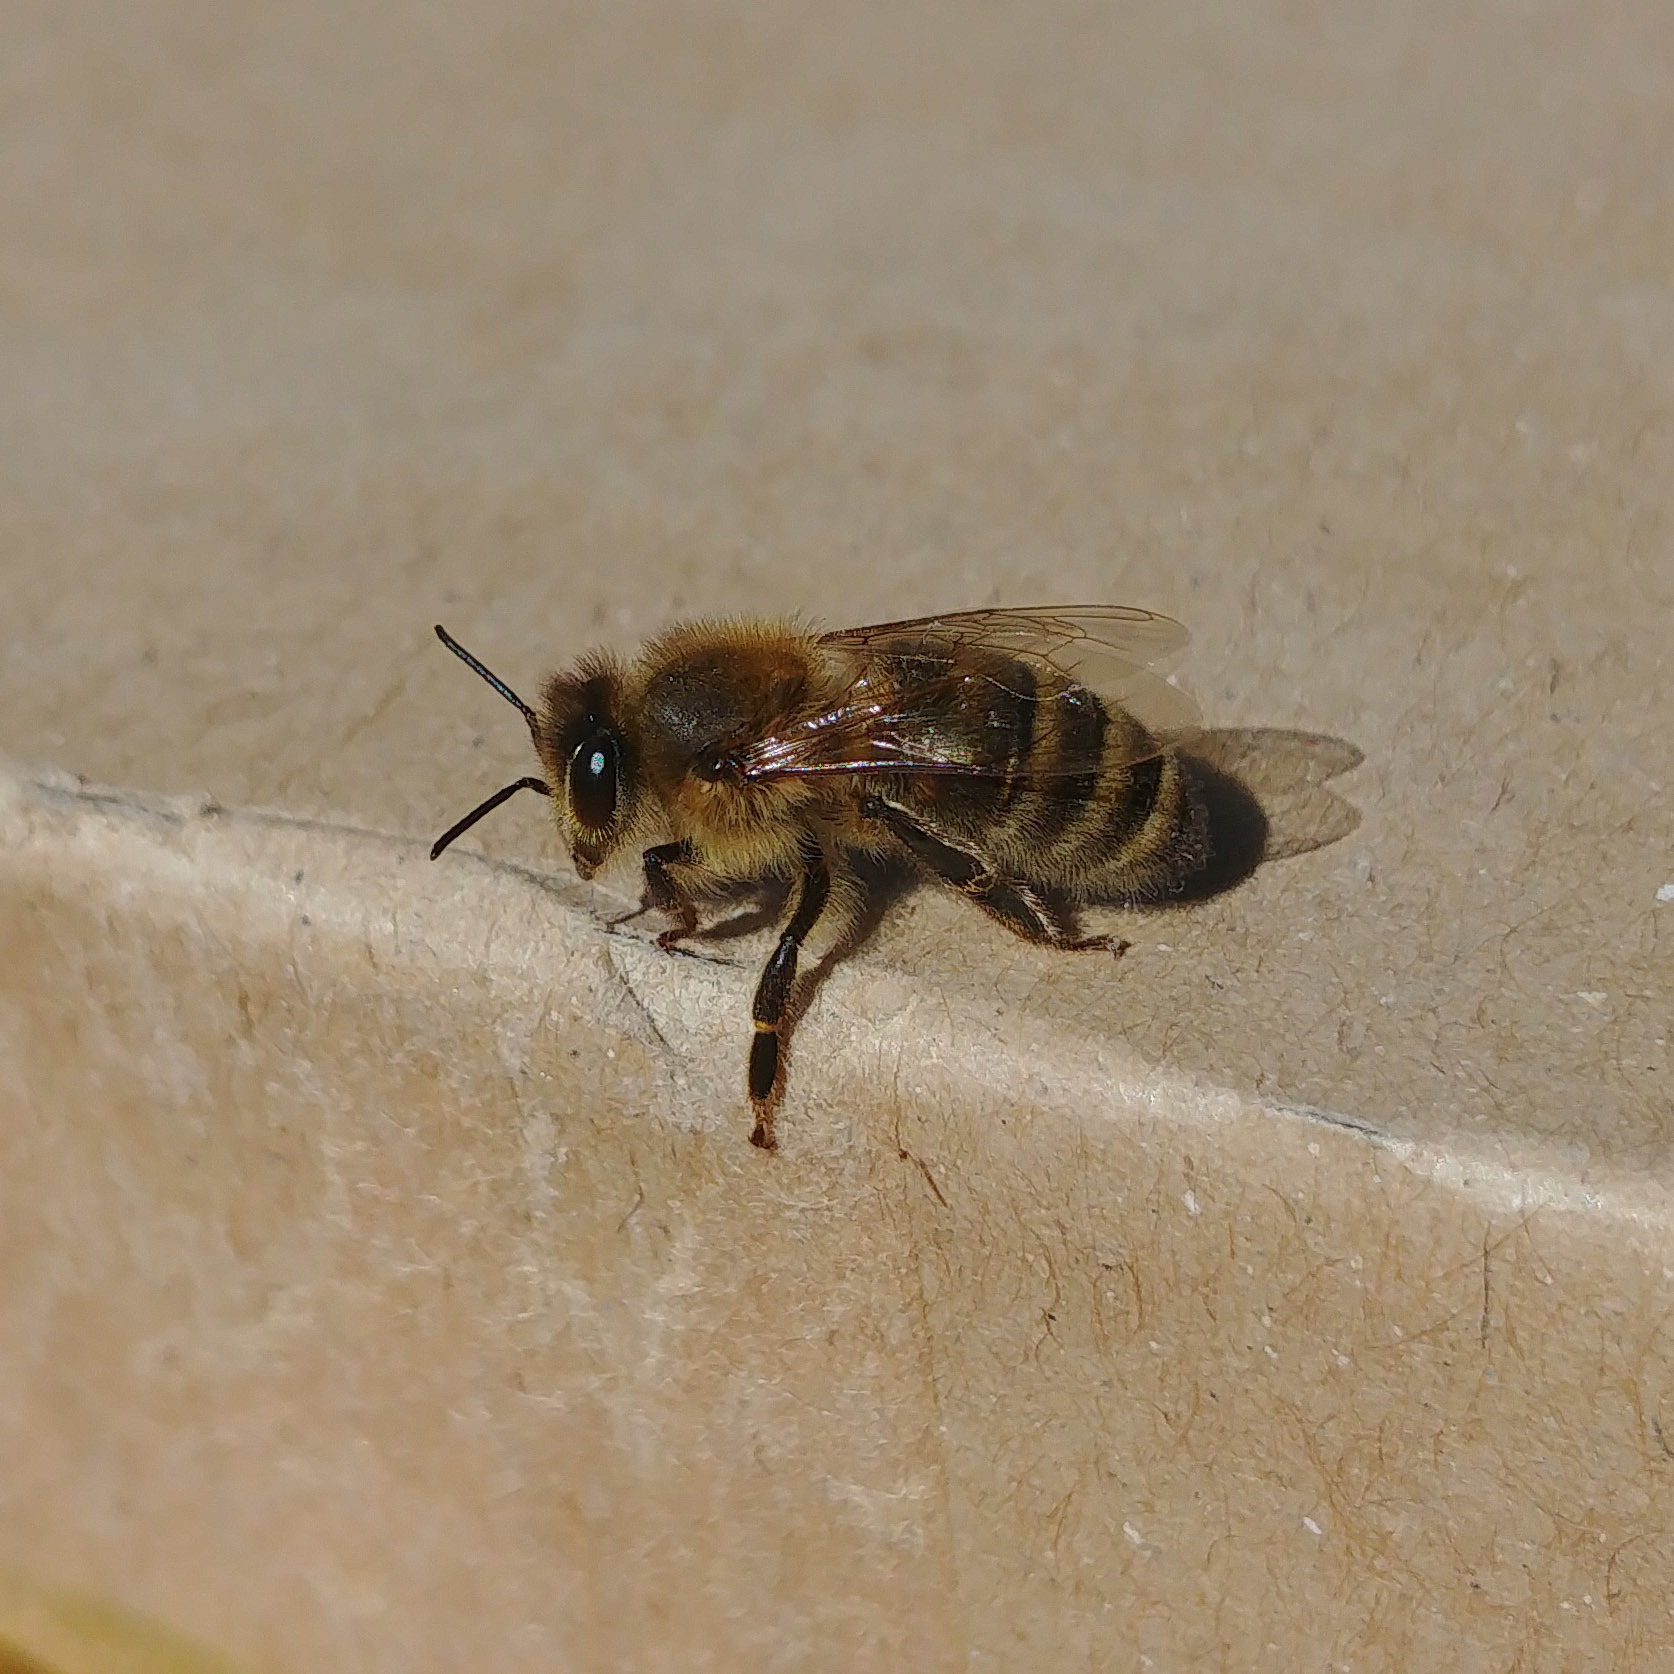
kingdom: Animalia
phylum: Arthropoda
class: Insecta
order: Hymenoptera
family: Apidae
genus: Apis
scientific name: Apis mellifera
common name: Honey bee
